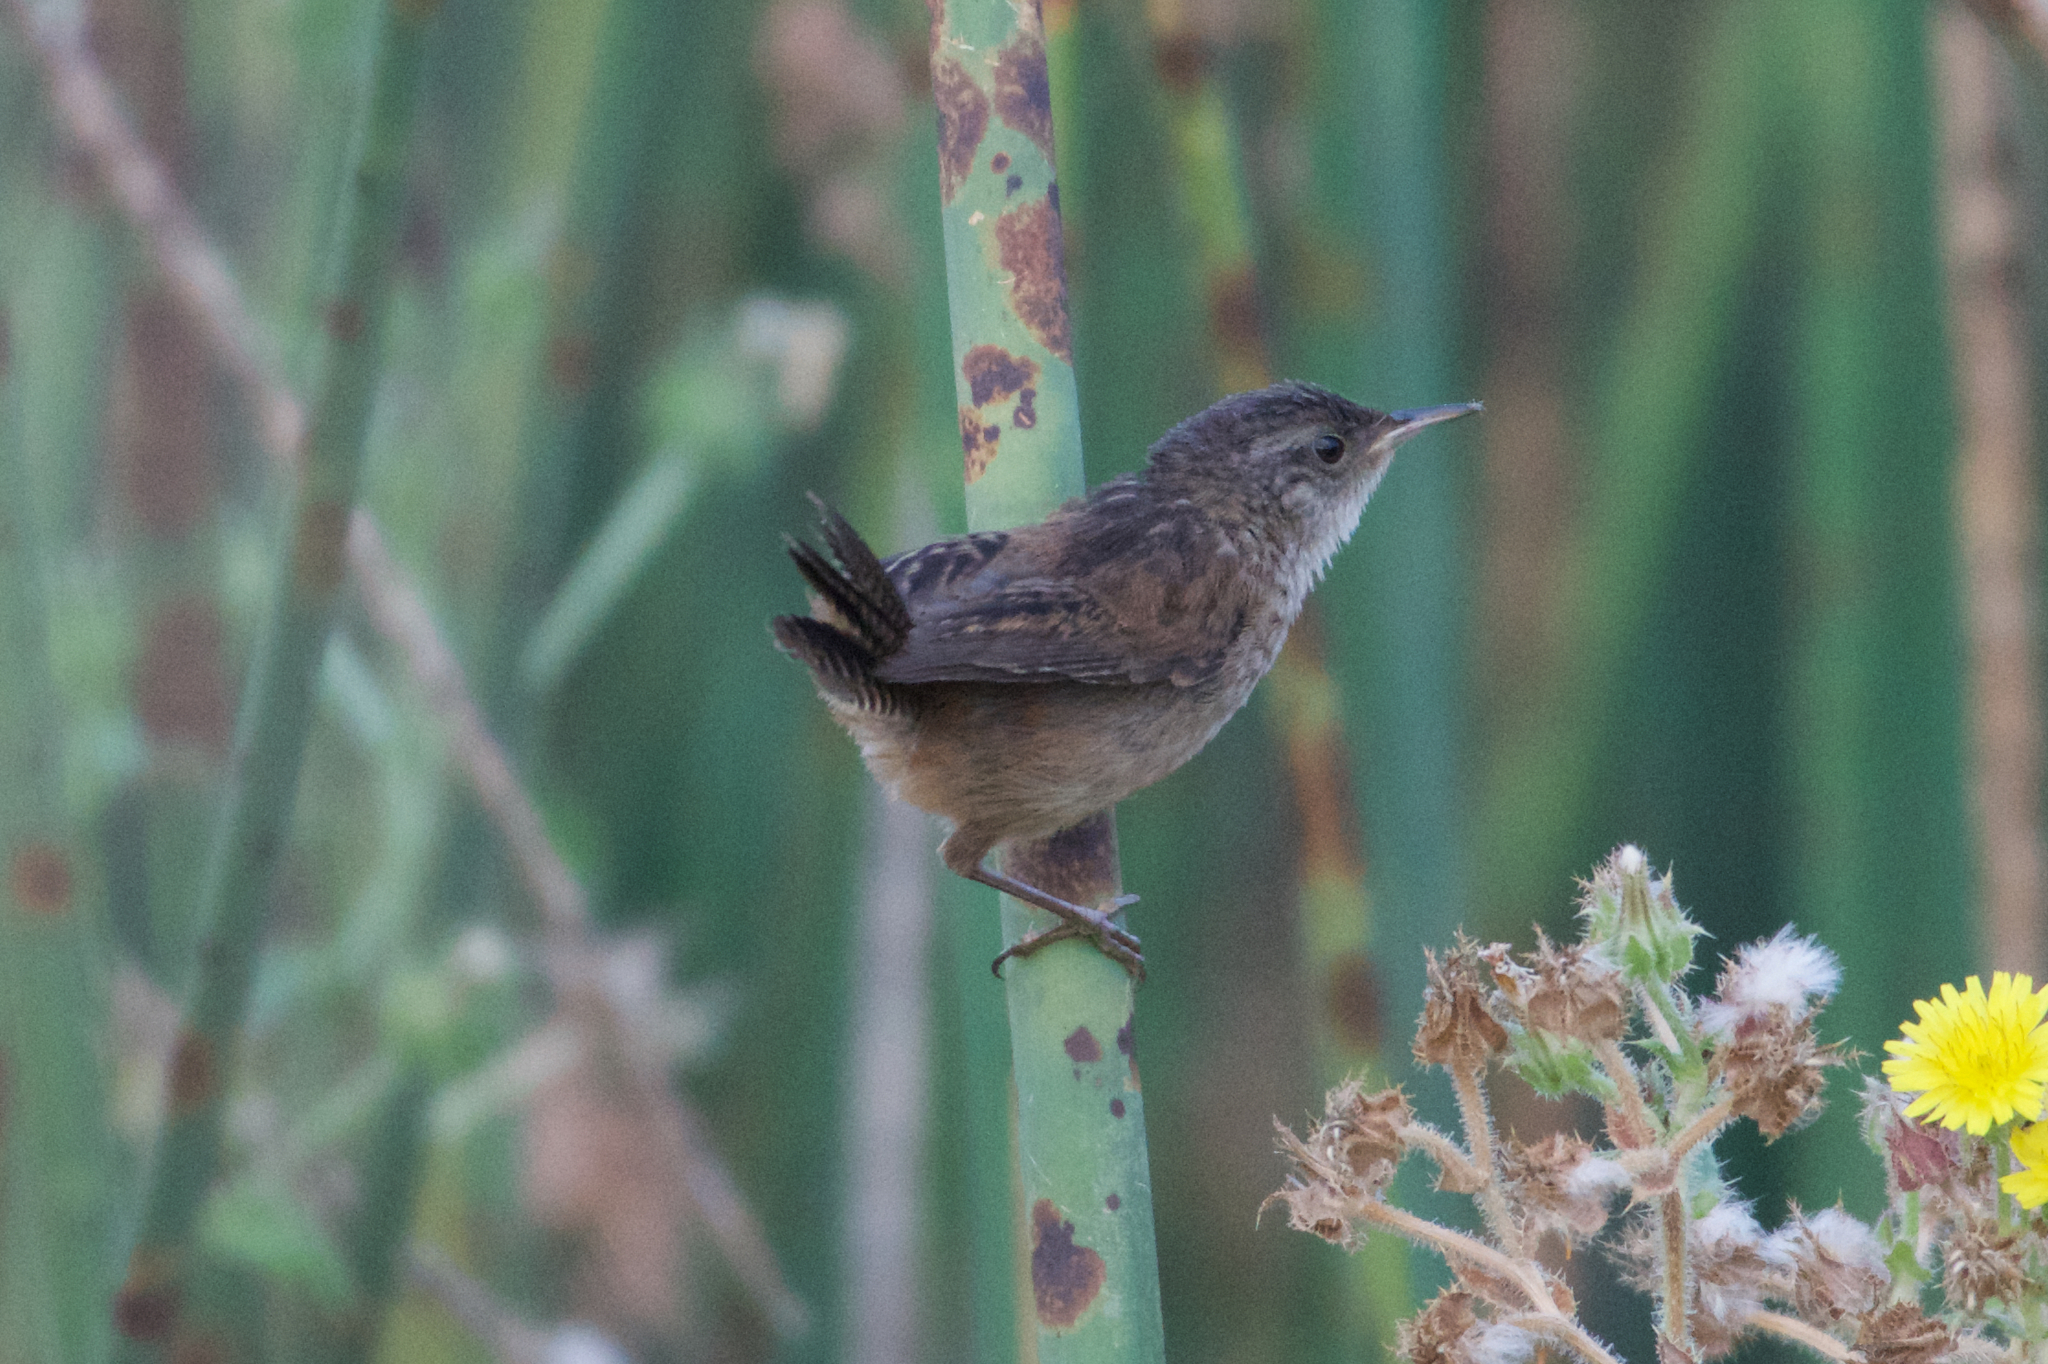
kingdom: Animalia
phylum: Chordata
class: Aves
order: Passeriformes
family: Troglodytidae
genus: Cistothorus
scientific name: Cistothorus palustris
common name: Marsh wren
